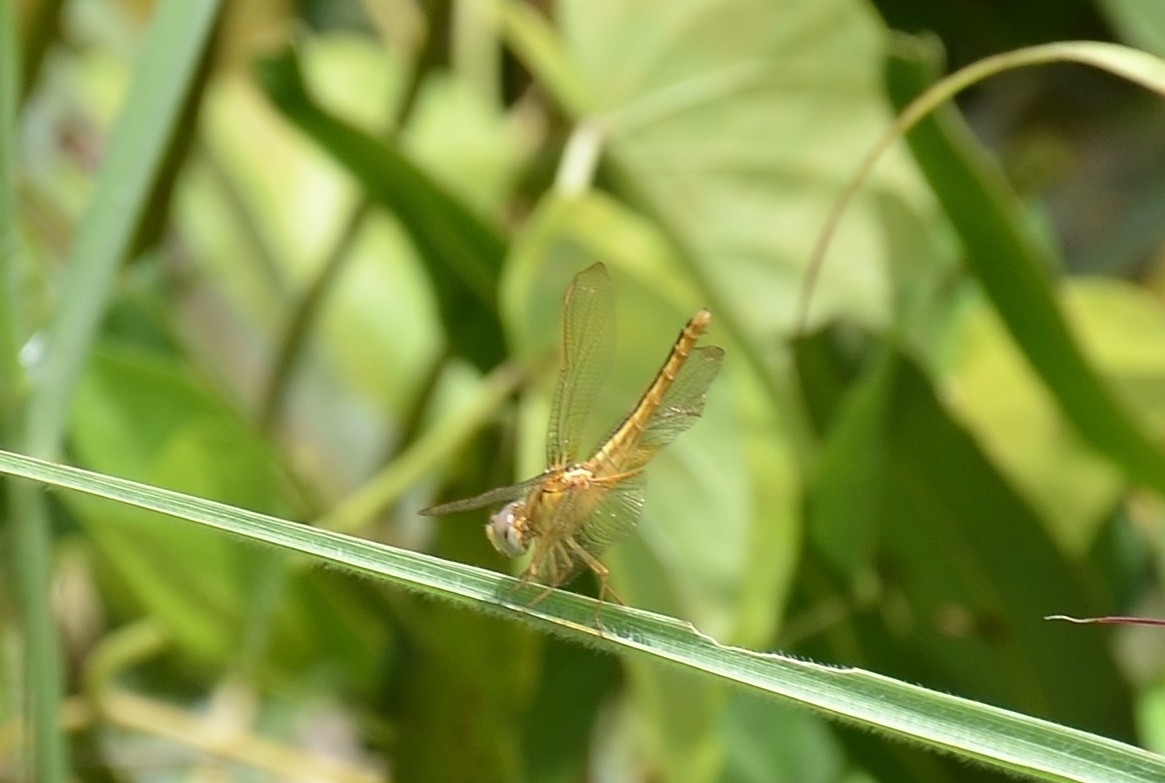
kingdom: Animalia
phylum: Arthropoda
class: Insecta
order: Odonata
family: Libellulidae
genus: Crocothemis
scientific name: Crocothemis servilia
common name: Scarlet skimmer
